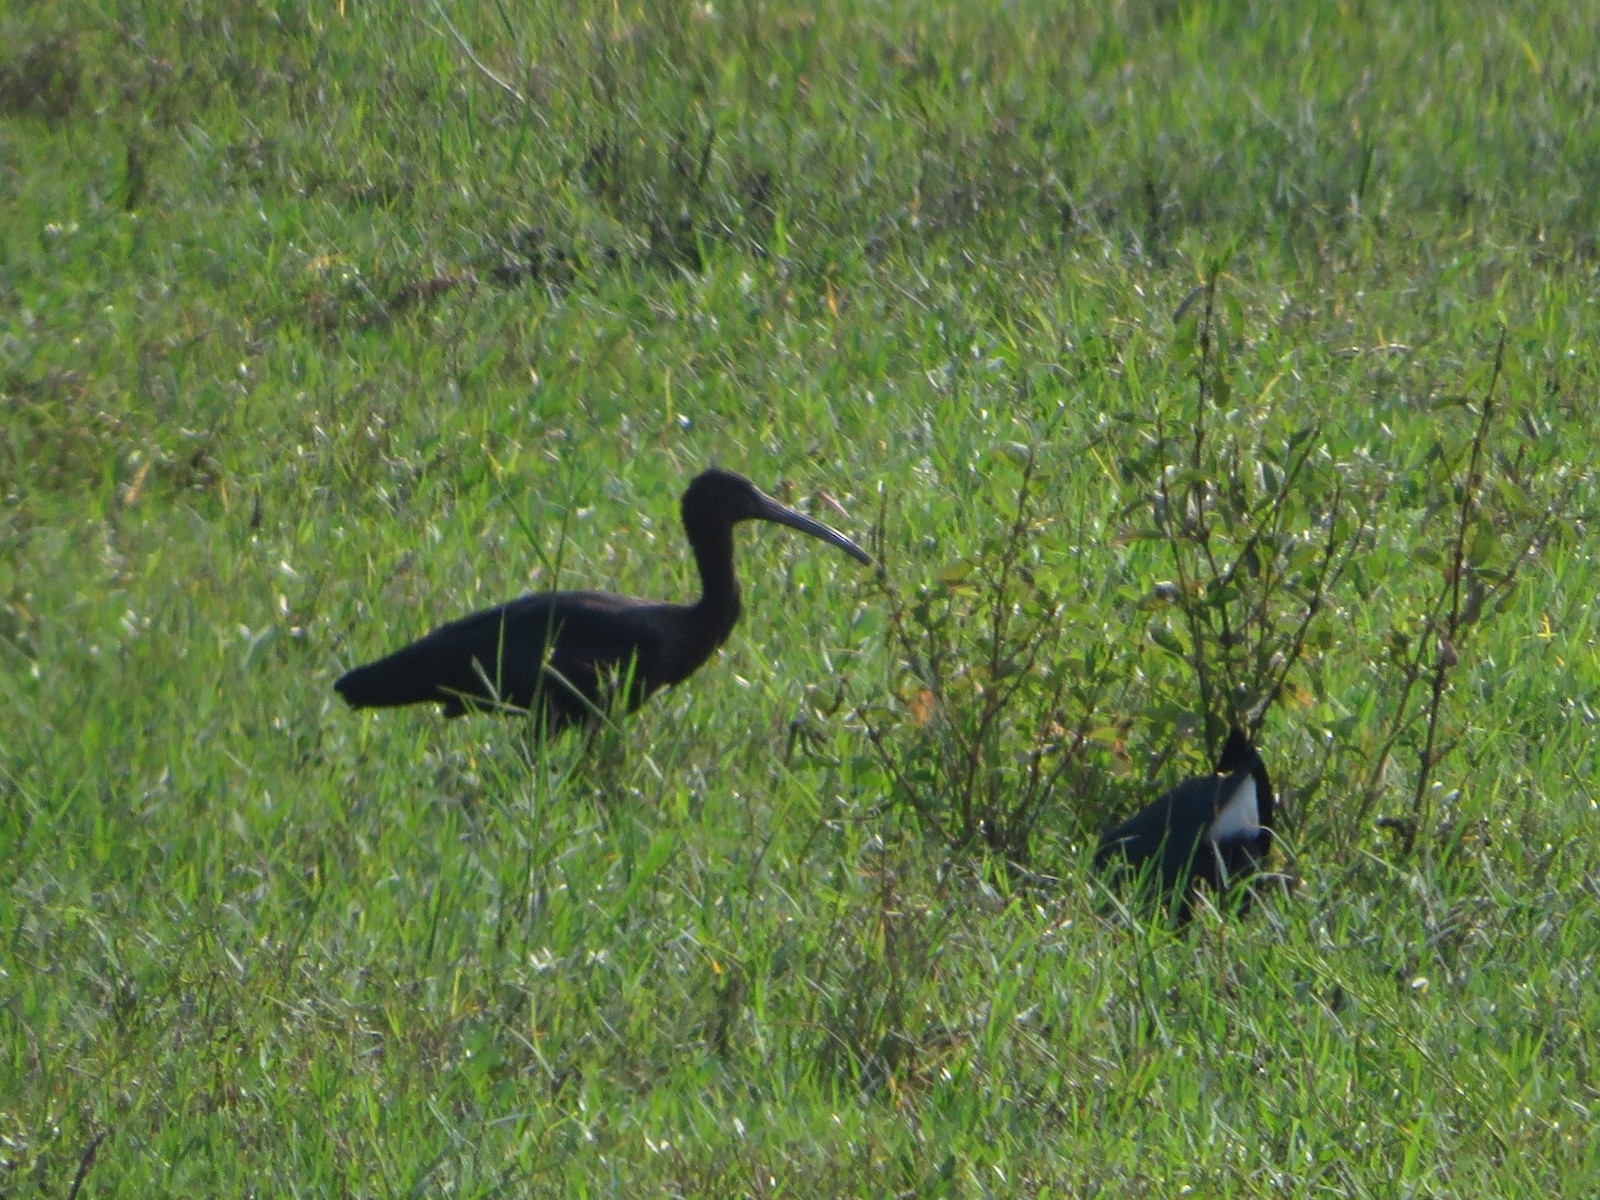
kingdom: Animalia
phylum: Chordata
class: Aves
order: Pelecaniformes
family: Threskiornithidae
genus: Plegadis
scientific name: Plegadis falcinellus
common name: Glossy ibis
